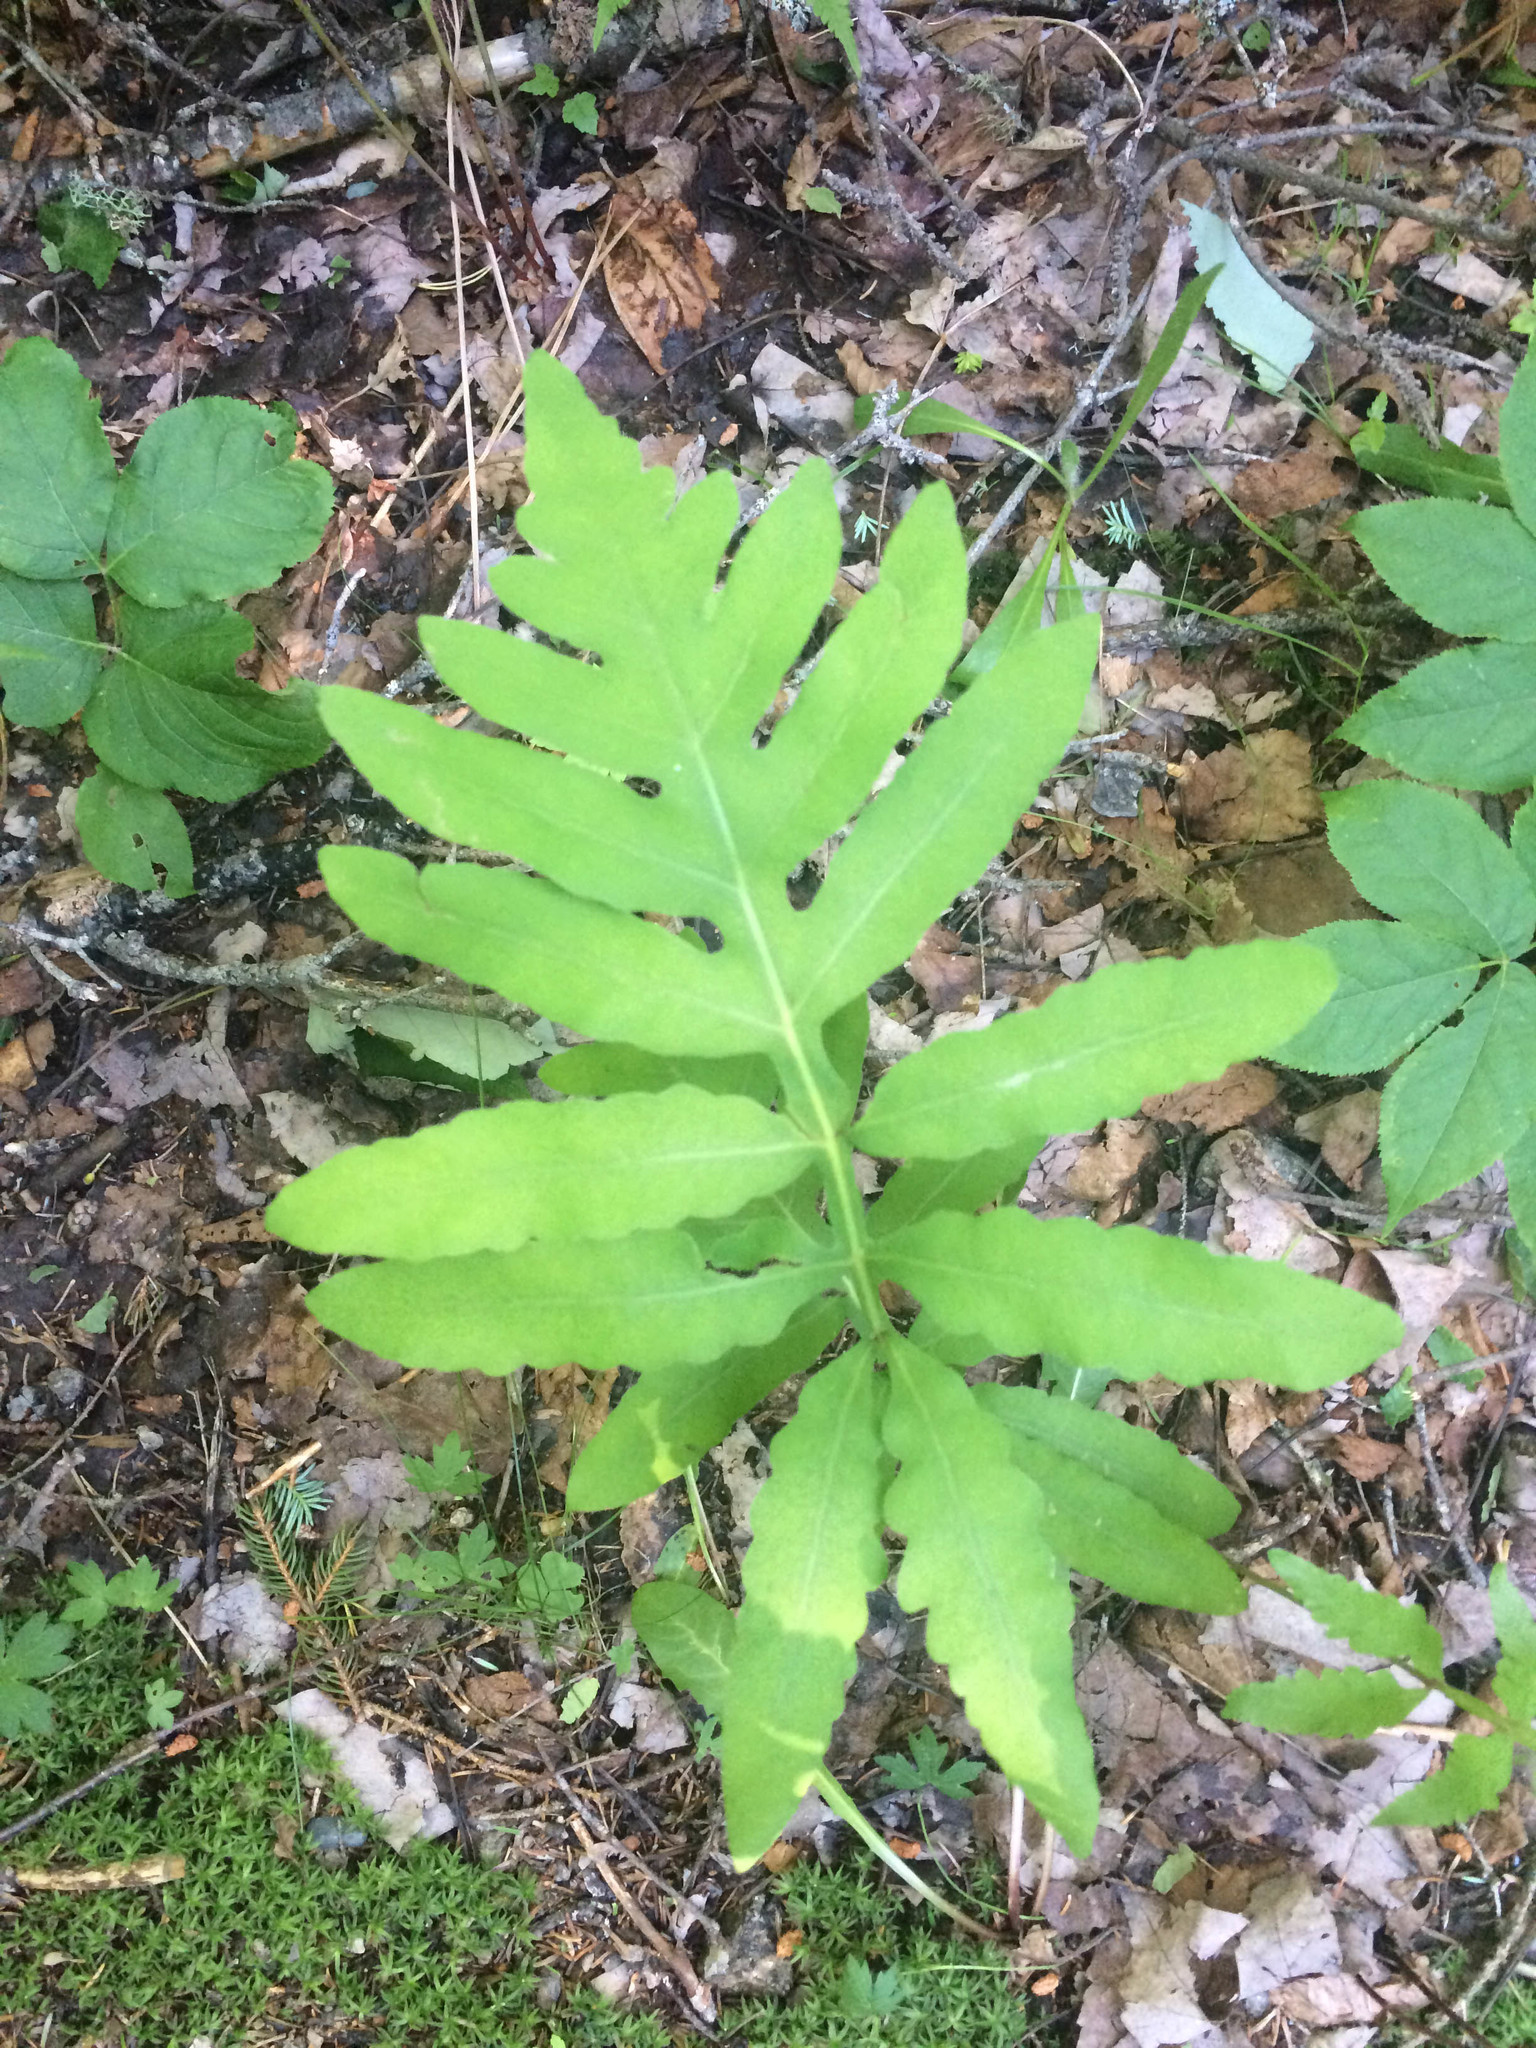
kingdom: Plantae
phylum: Tracheophyta
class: Polypodiopsida
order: Polypodiales
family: Onocleaceae
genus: Onoclea
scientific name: Onoclea sensibilis
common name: Sensitive fern
